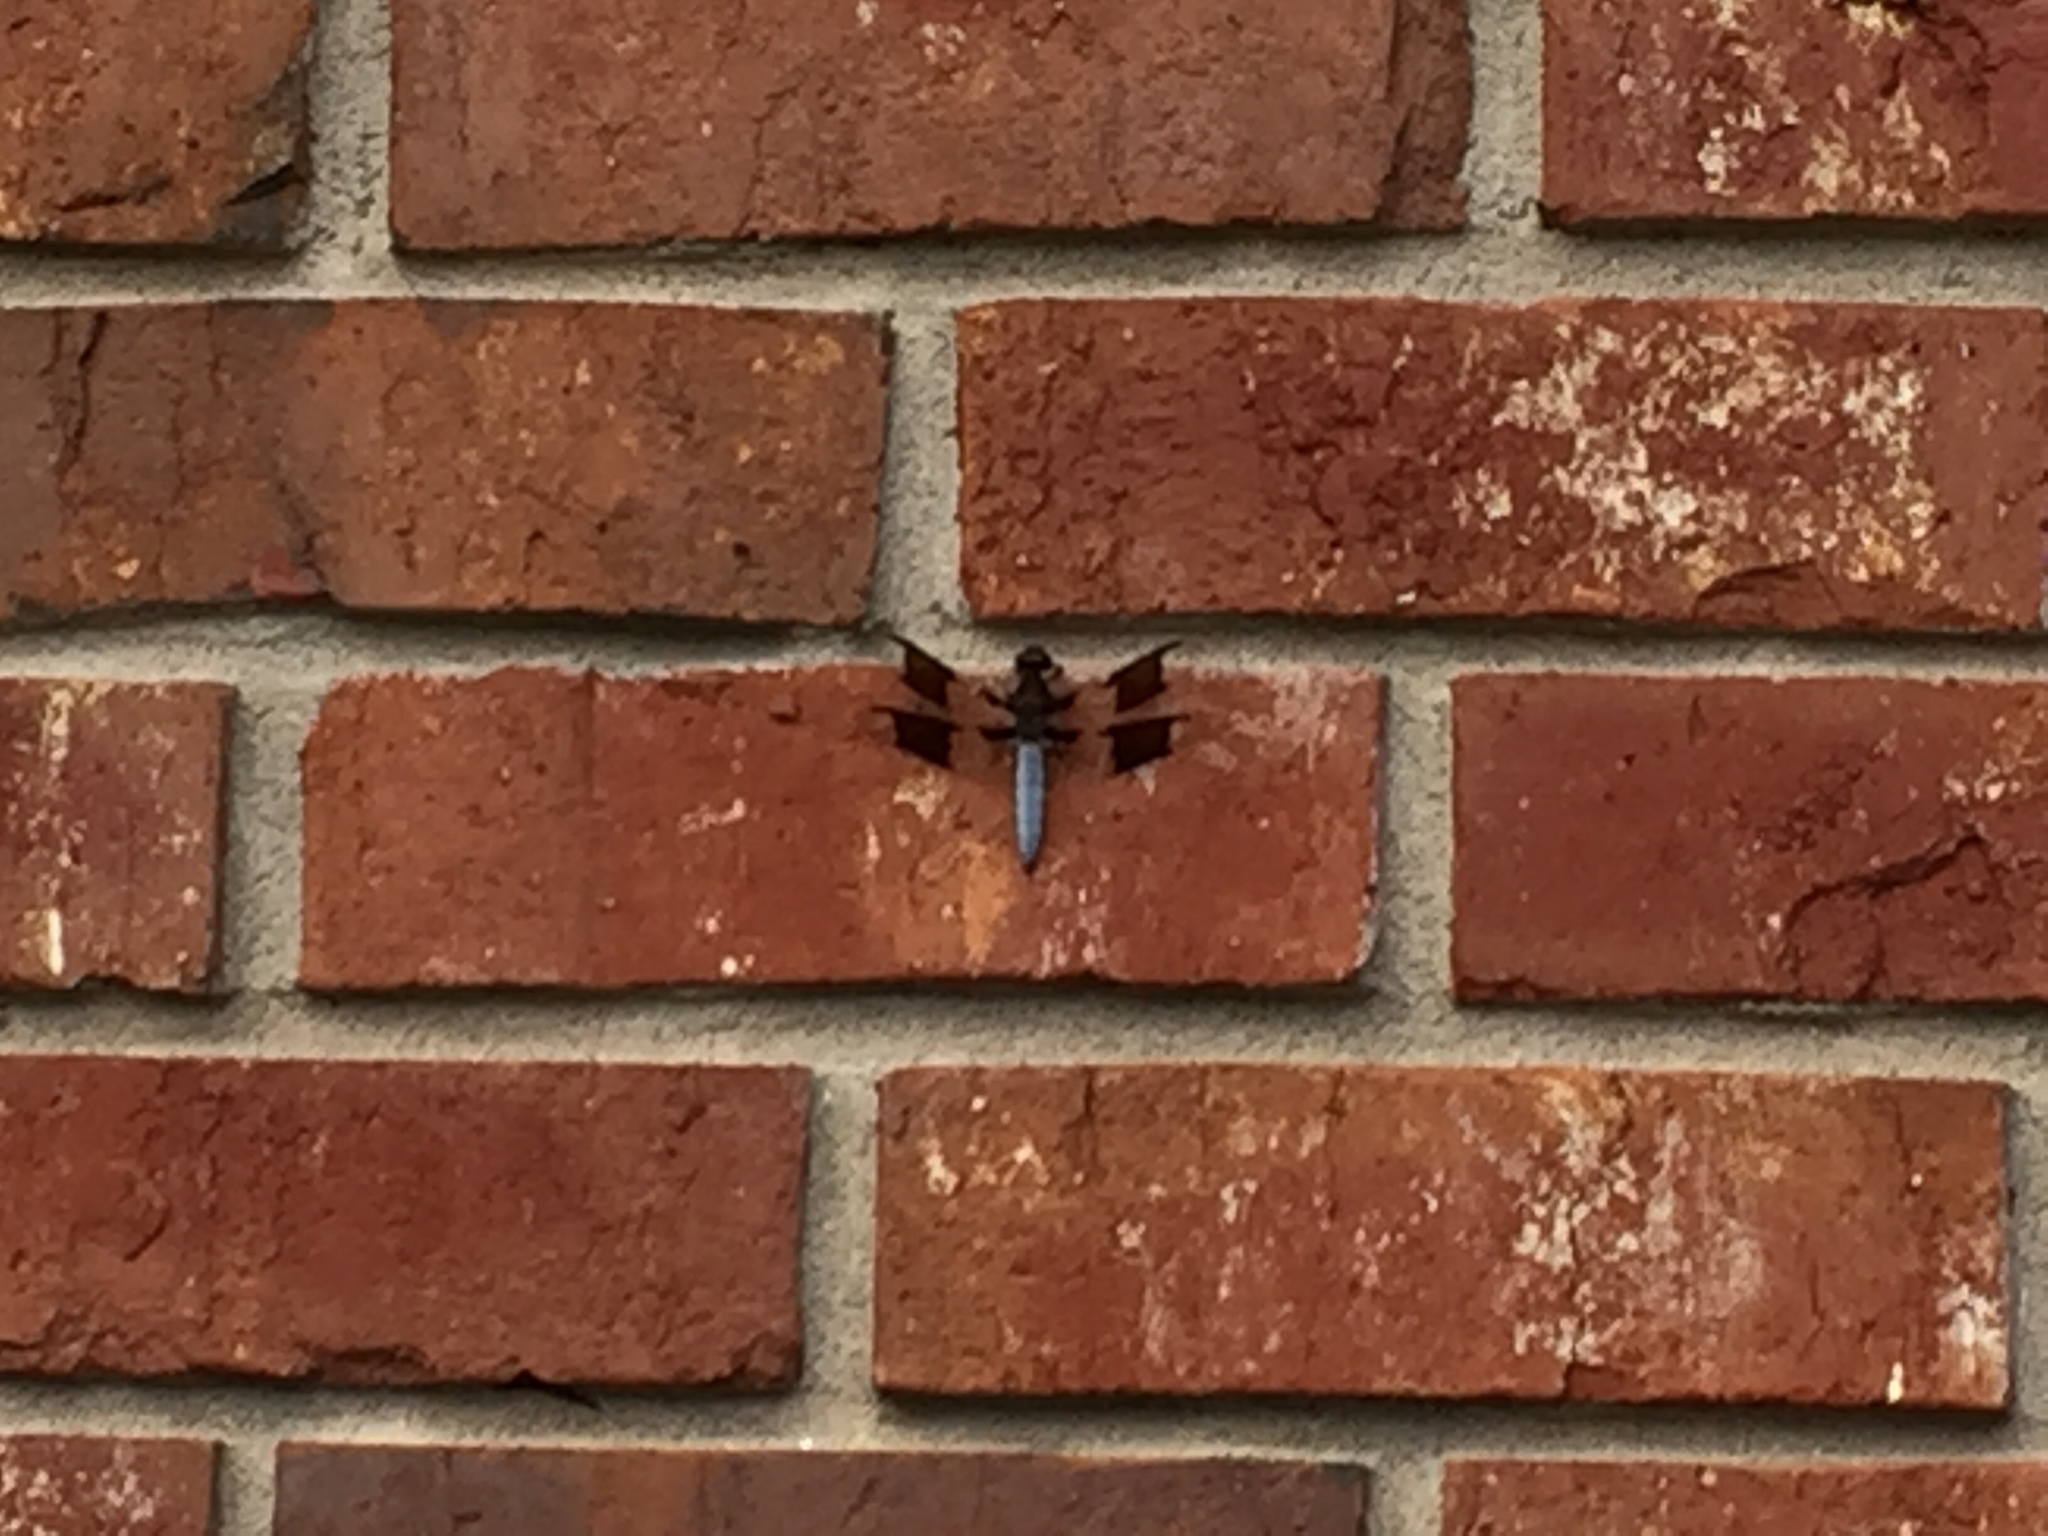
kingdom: Animalia
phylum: Arthropoda
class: Insecta
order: Odonata
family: Libellulidae
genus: Plathemis
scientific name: Plathemis lydia
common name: Common whitetail
